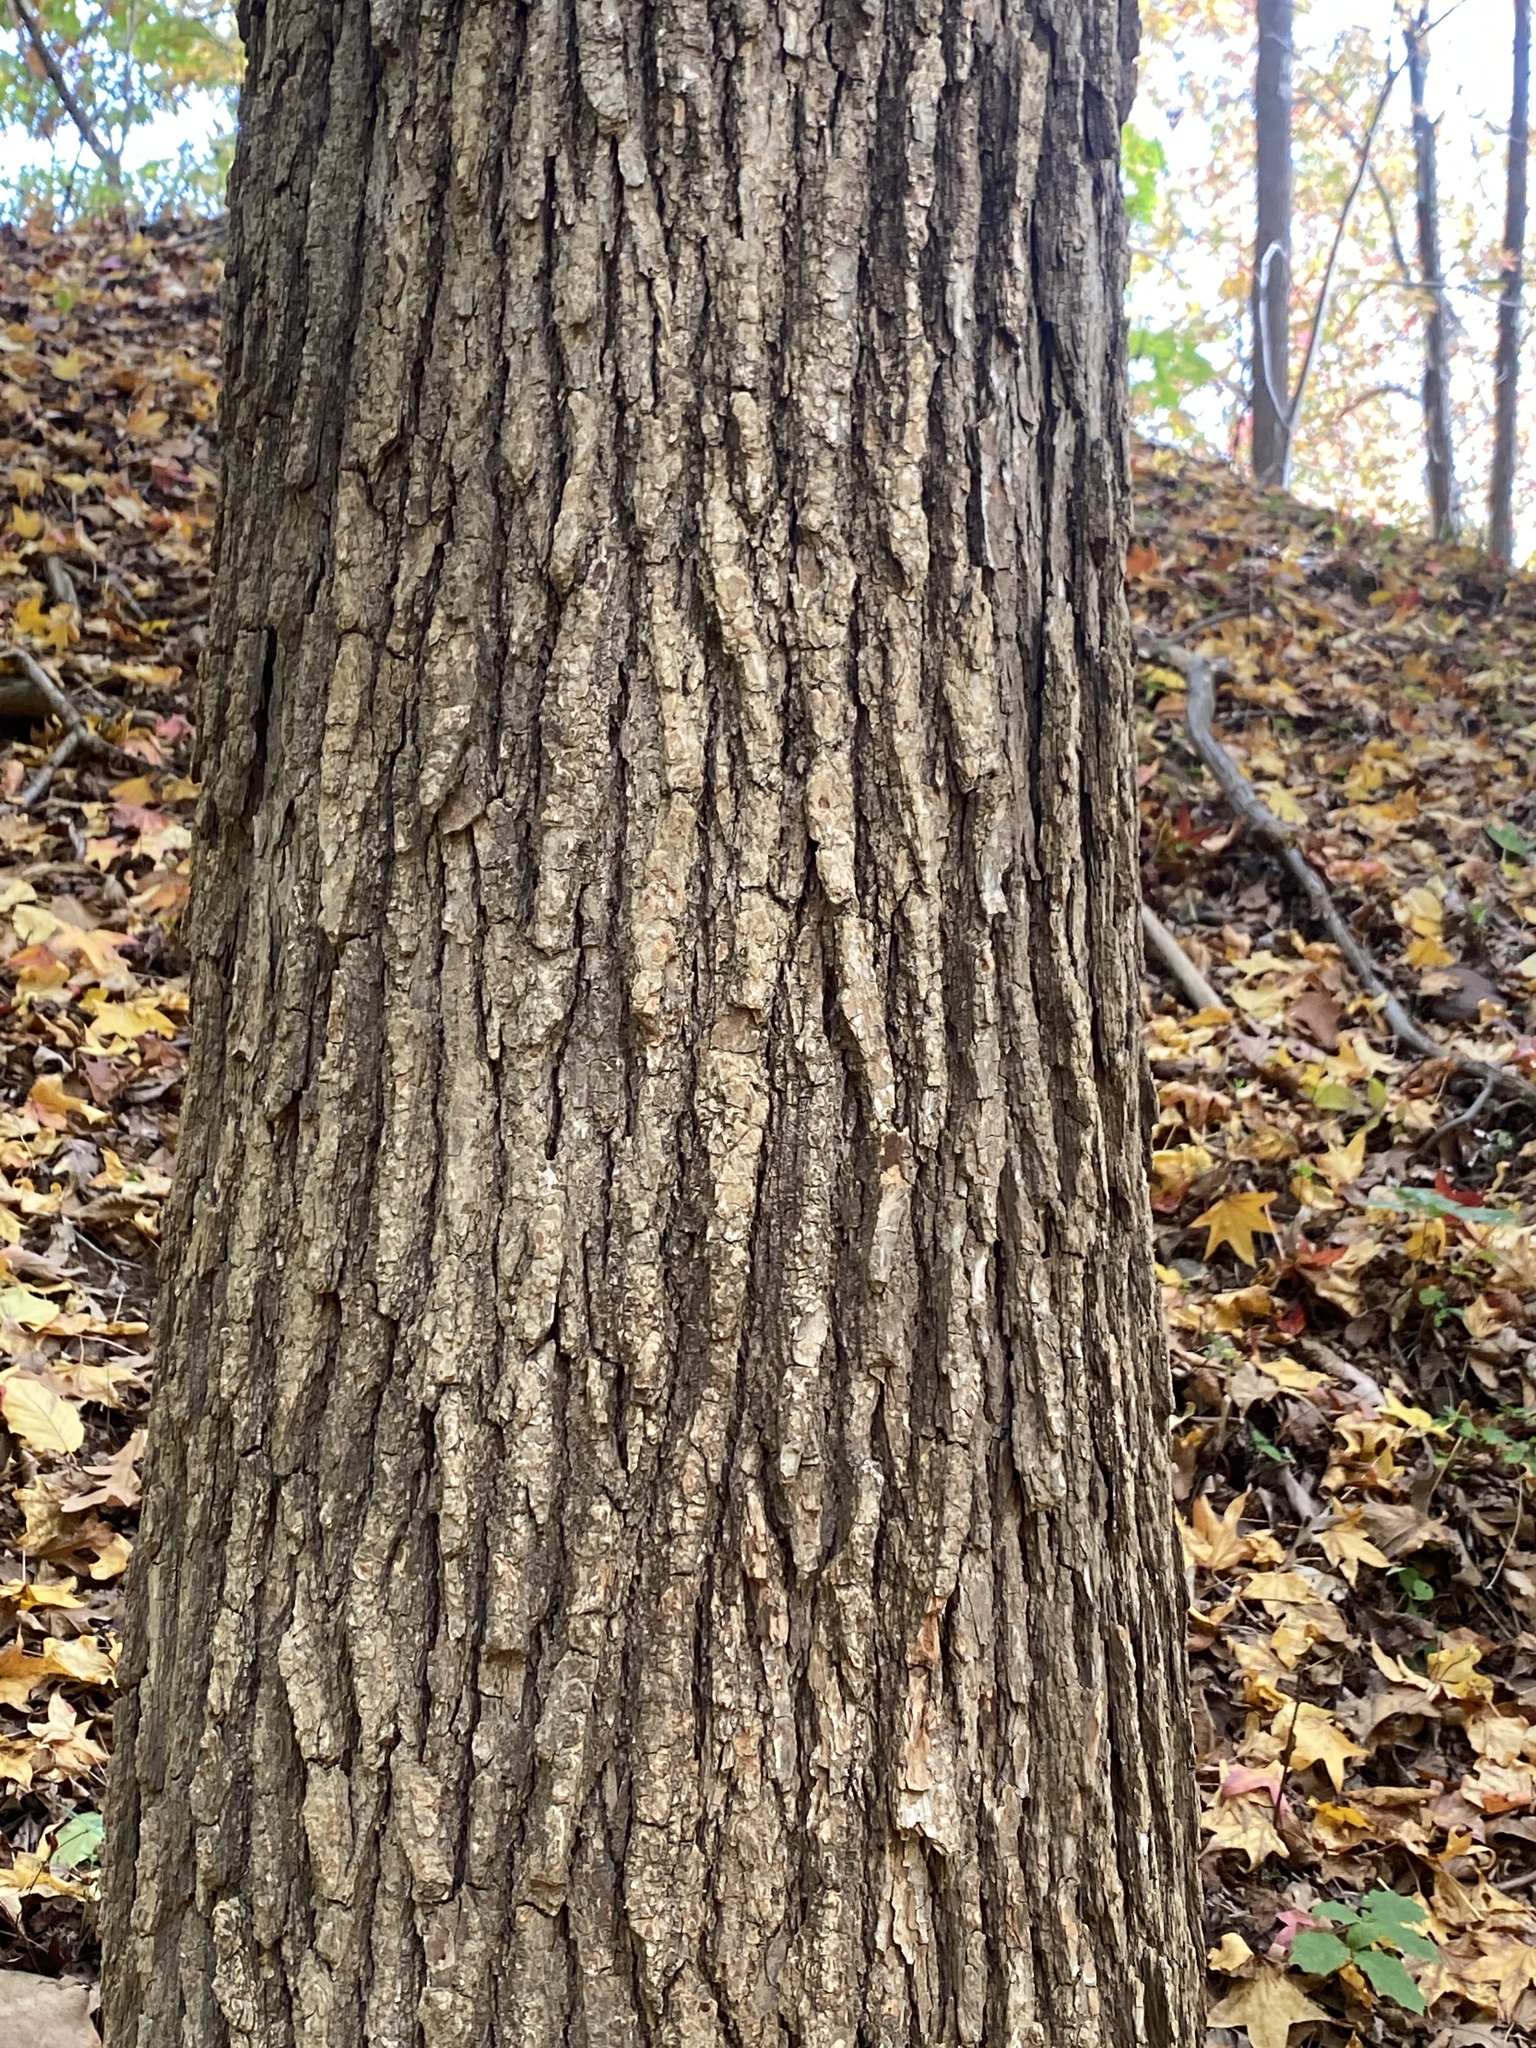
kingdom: Plantae
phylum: Tracheophyta
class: Magnoliopsida
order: Saxifragales
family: Altingiaceae
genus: Liquidambar
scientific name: Liquidambar styraciflua
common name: Sweet gum
